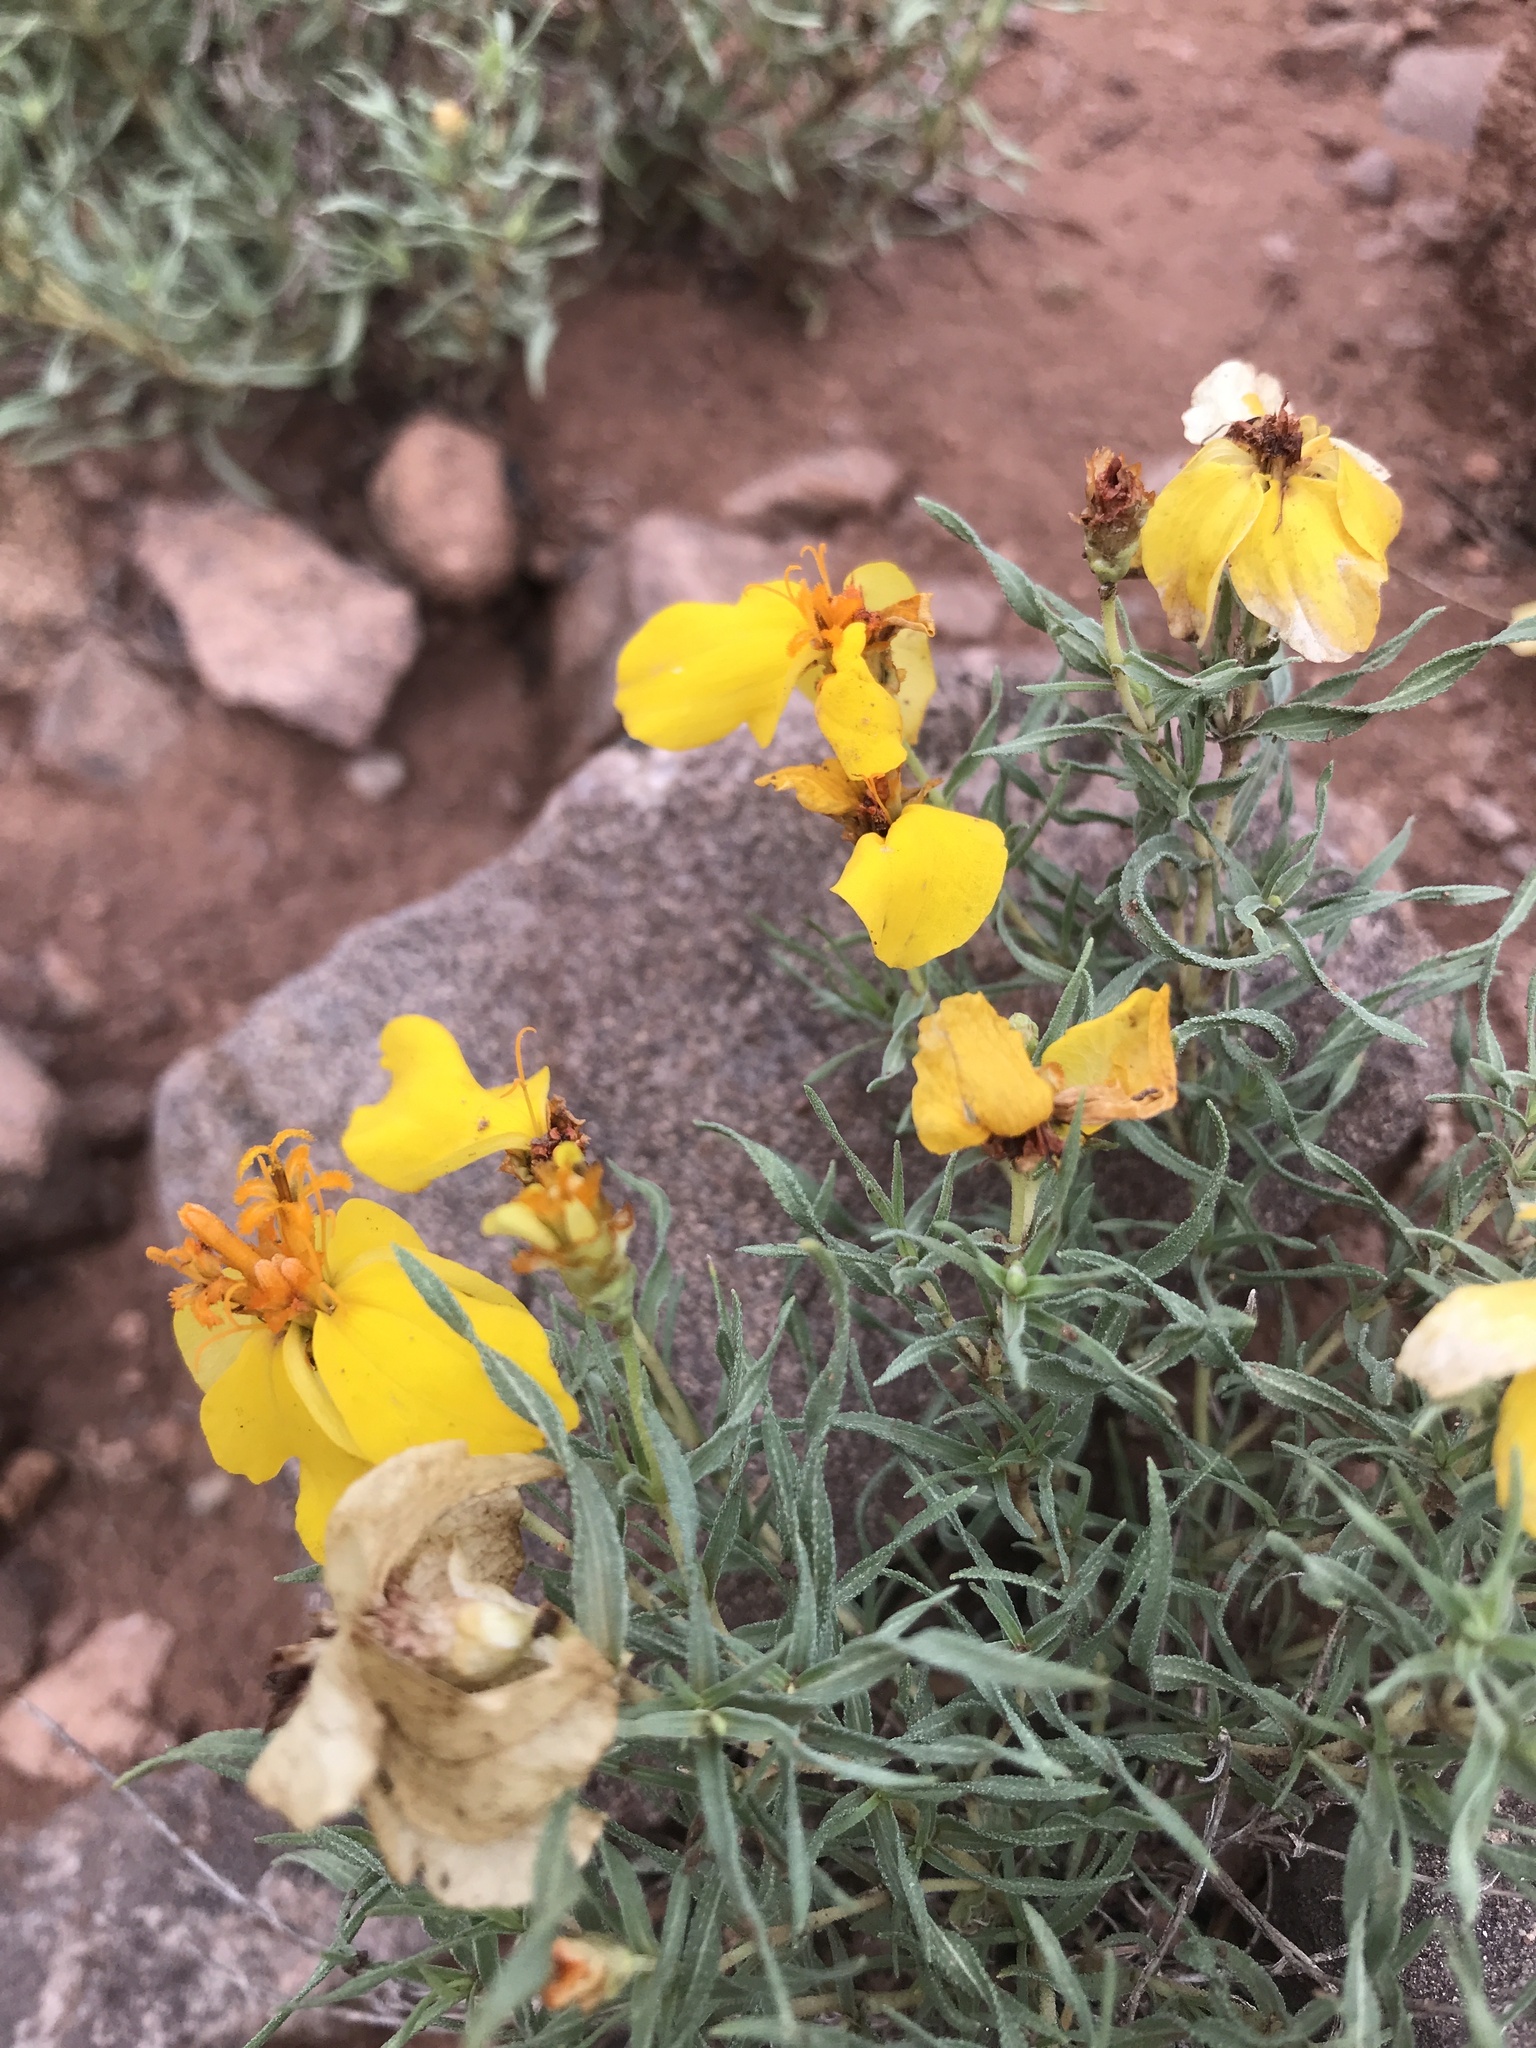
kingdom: Plantae
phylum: Tracheophyta
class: Magnoliopsida
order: Asterales
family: Asteraceae
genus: Zinnia
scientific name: Zinnia grandiflora
